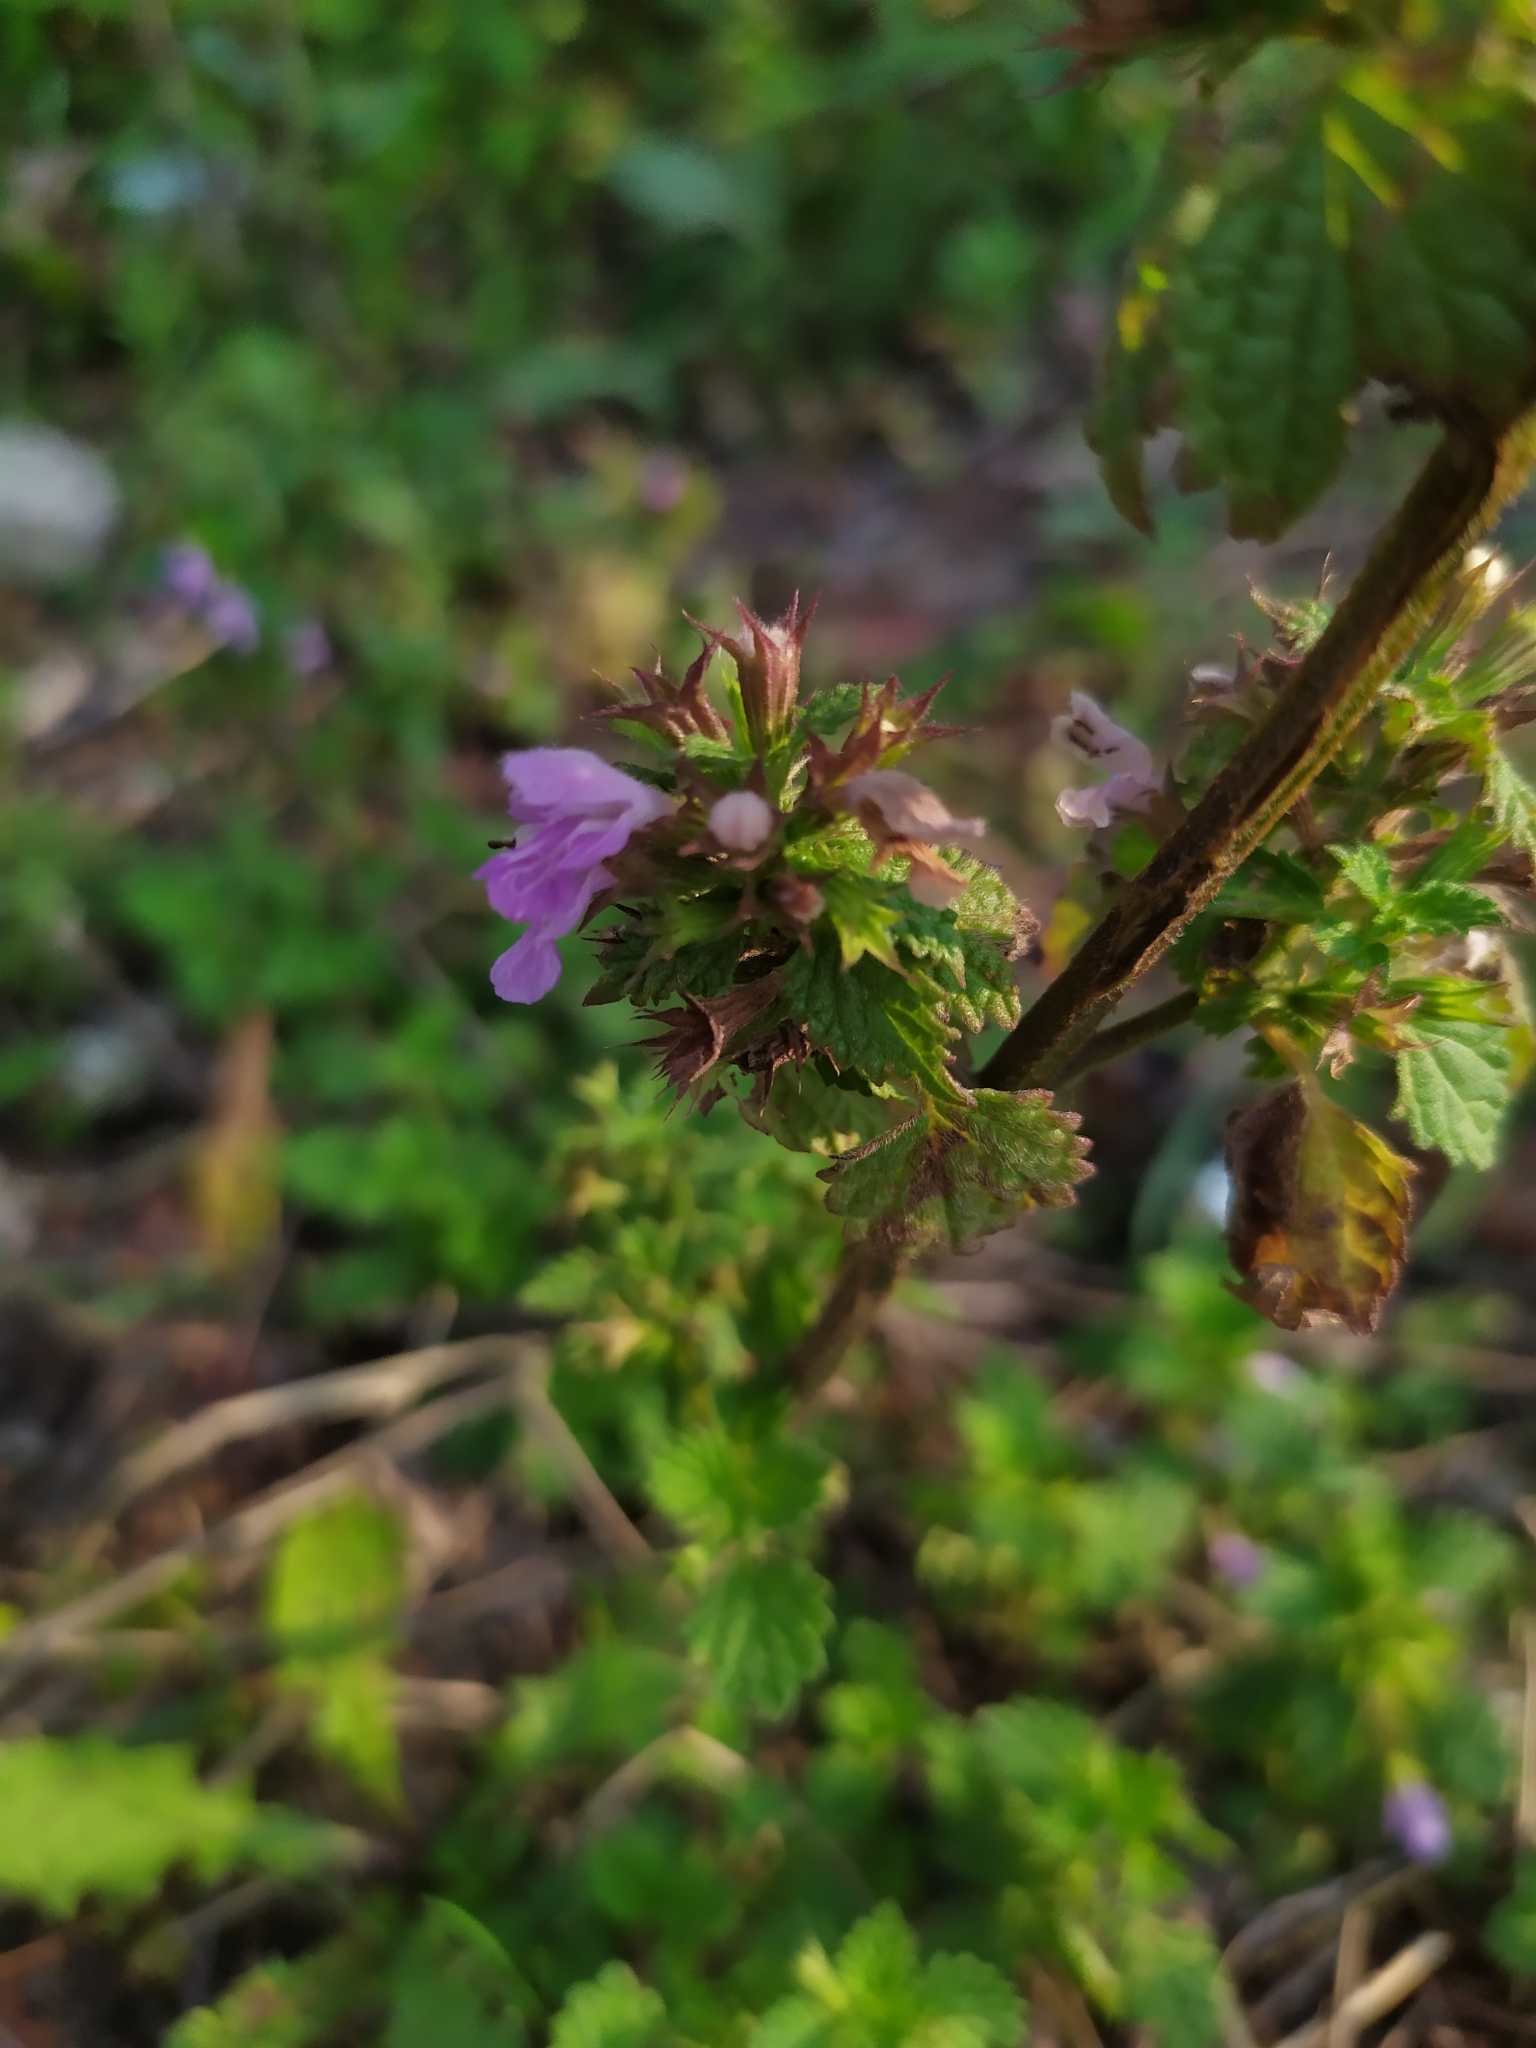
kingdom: Plantae
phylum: Tracheophyta
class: Magnoliopsida
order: Lamiales
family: Lamiaceae
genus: Ballota
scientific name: Ballota nigra
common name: Black horehound
